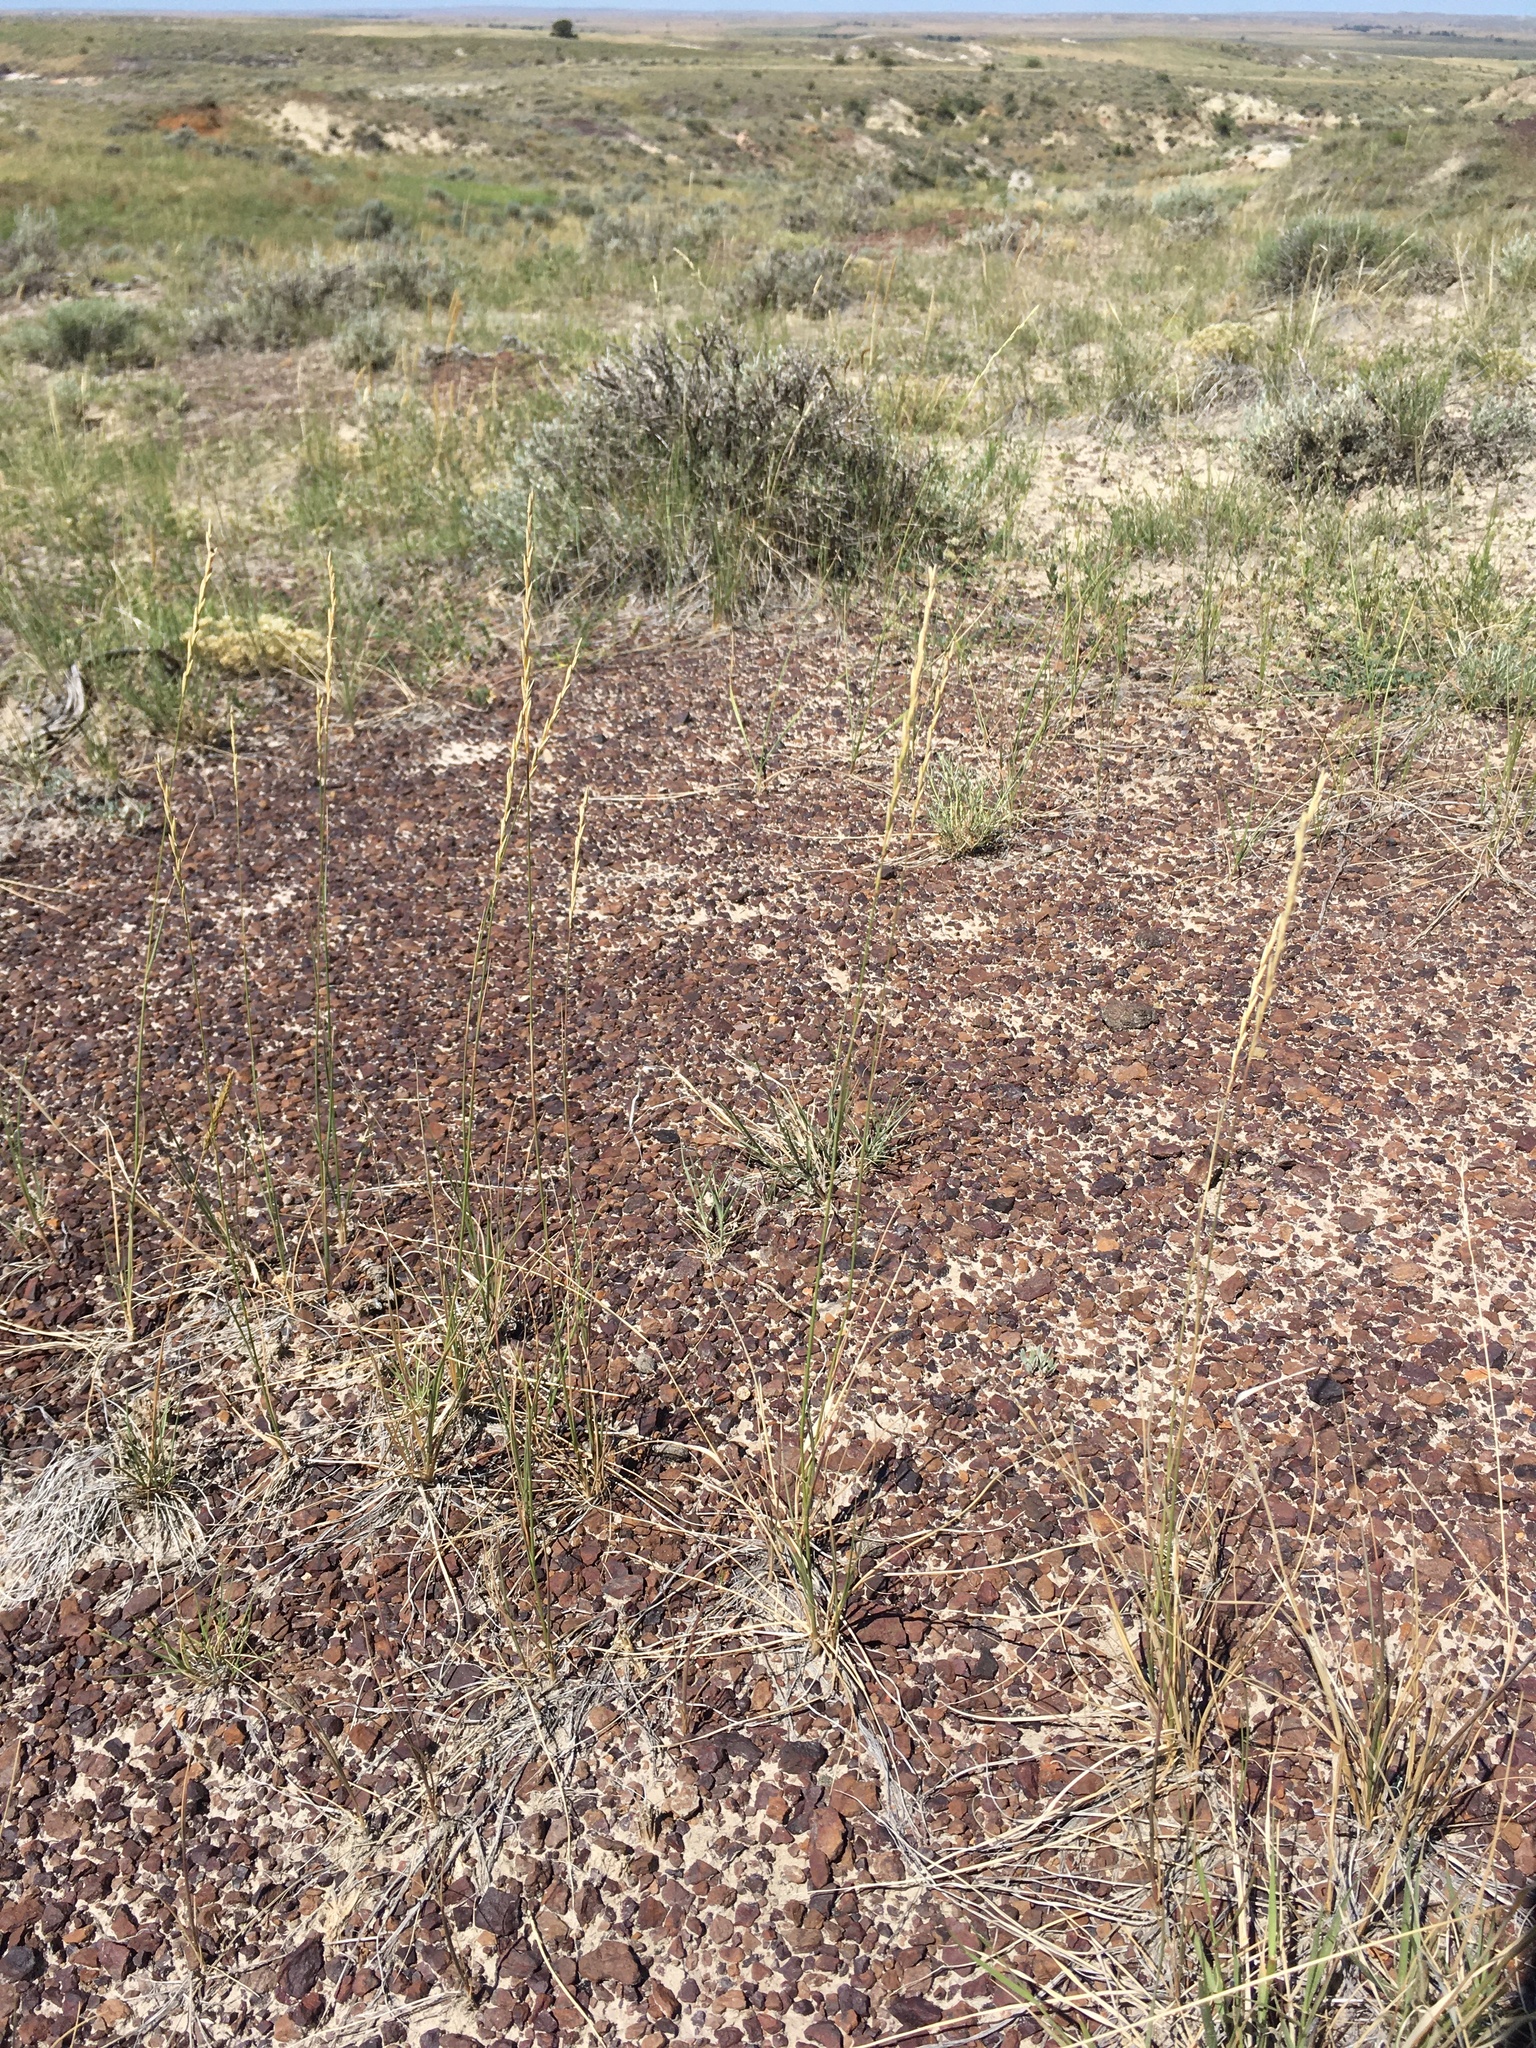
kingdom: Plantae
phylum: Tracheophyta
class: Liliopsida
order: Poales
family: Poaceae
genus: Elymus
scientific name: Elymus lanceolatus
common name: Thick-spike wheatgrass
